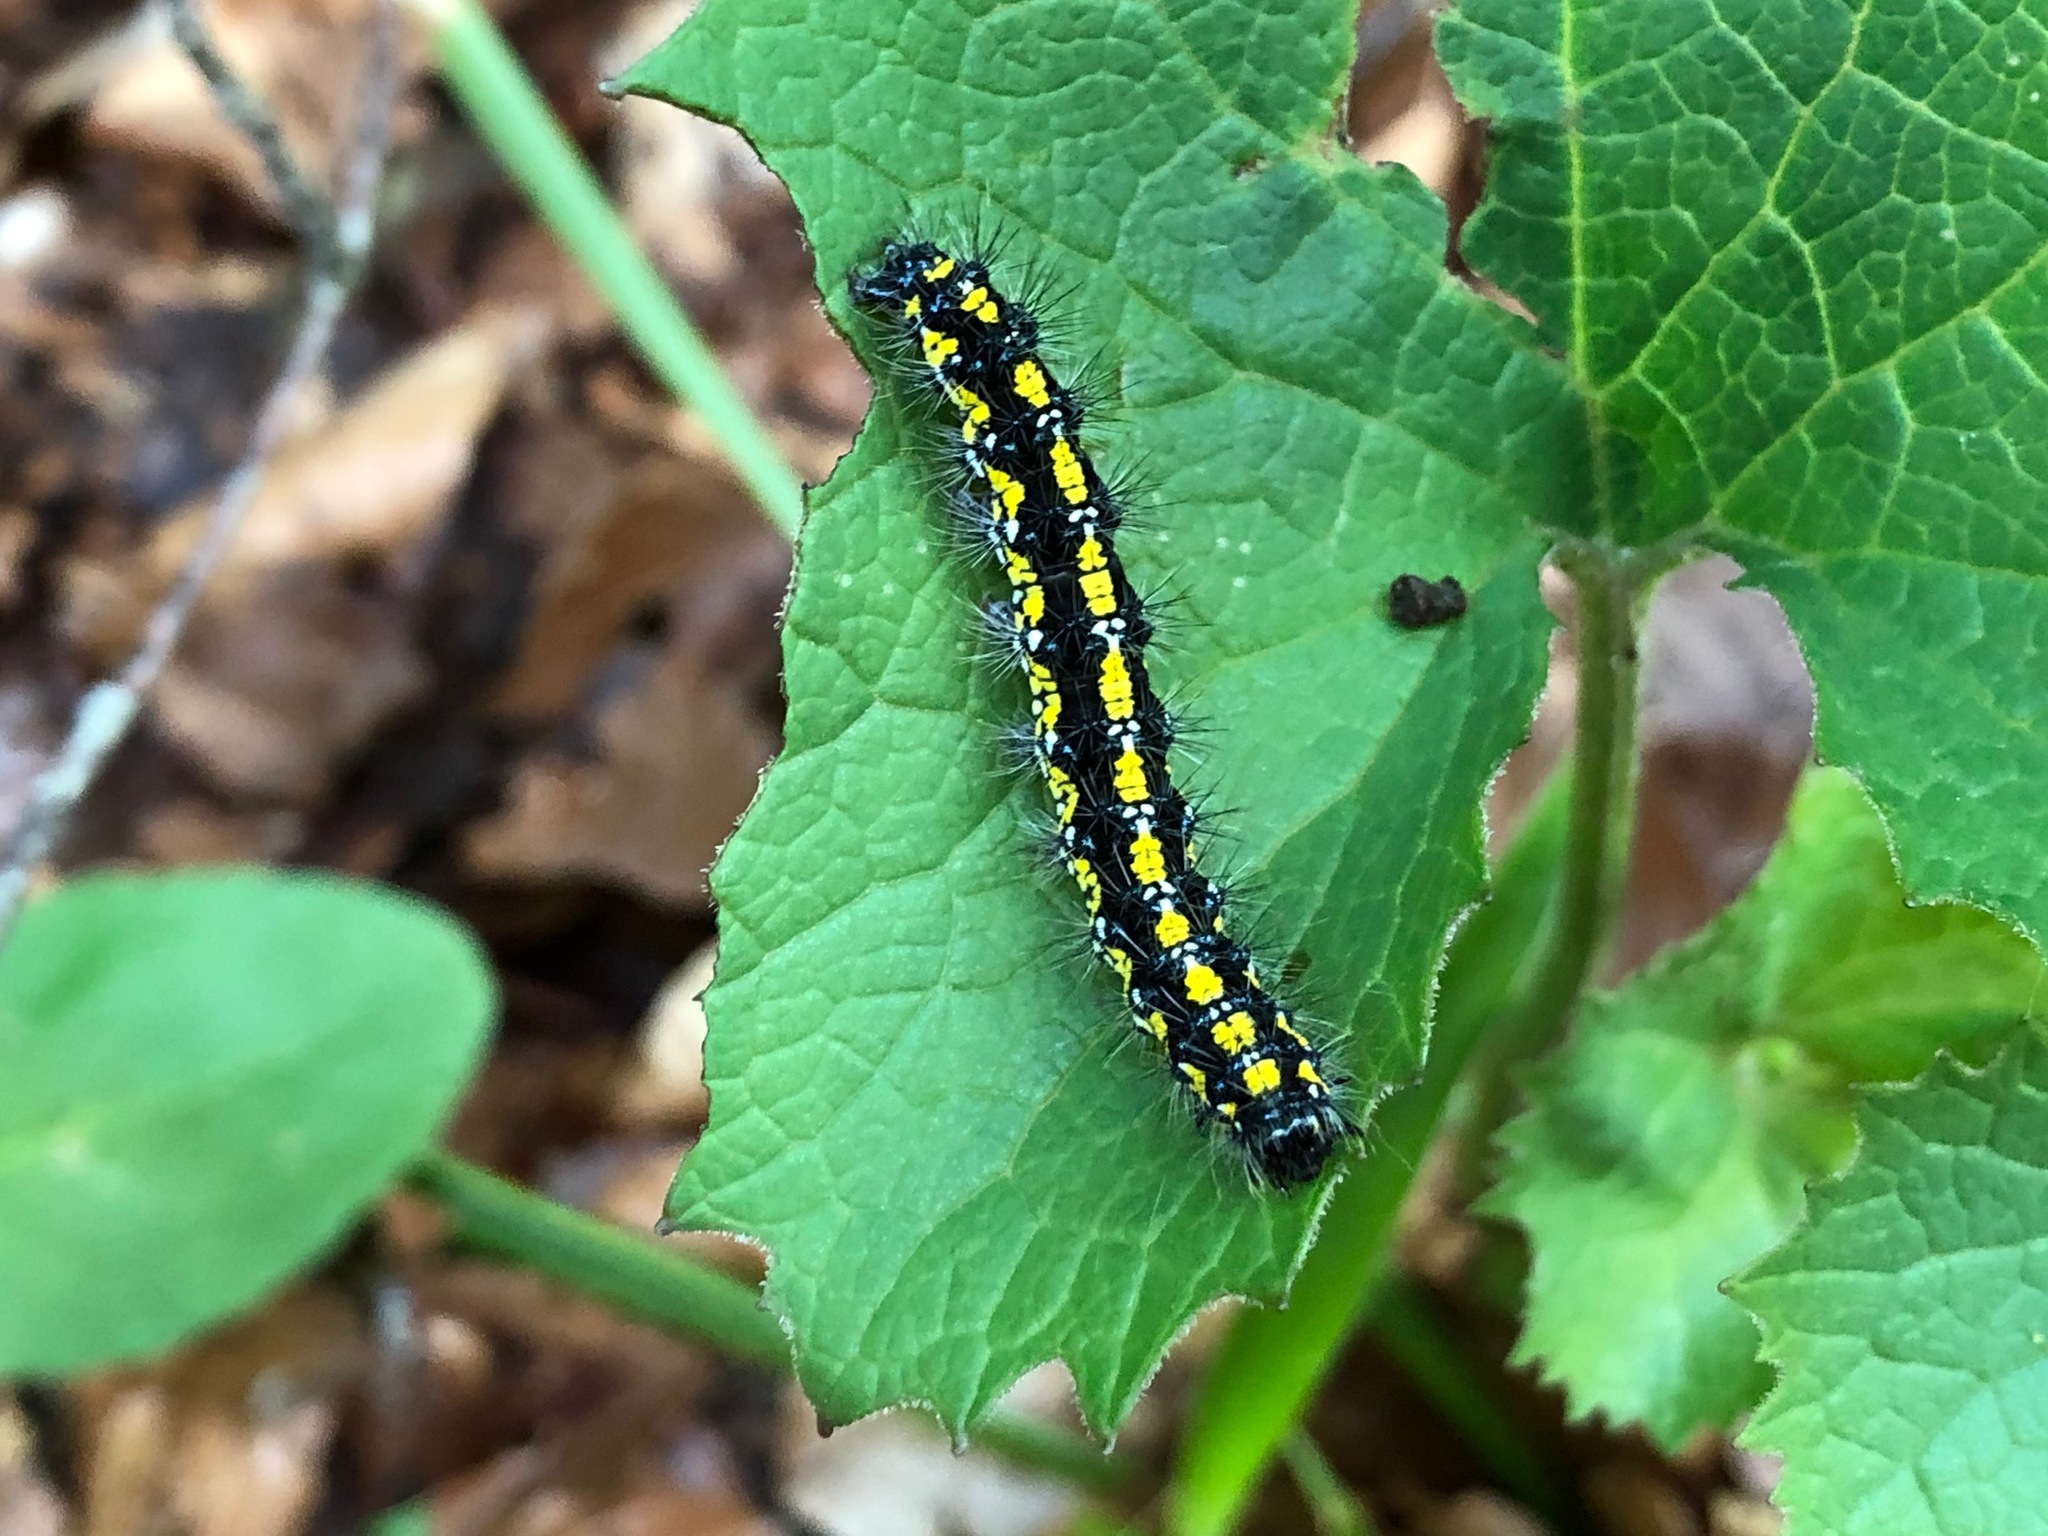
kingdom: Animalia
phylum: Arthropoda
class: Insecta
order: Lepidoptera
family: Erebidae
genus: Callimorpha
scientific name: Callimorpha dominula
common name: Scarlet tiger
